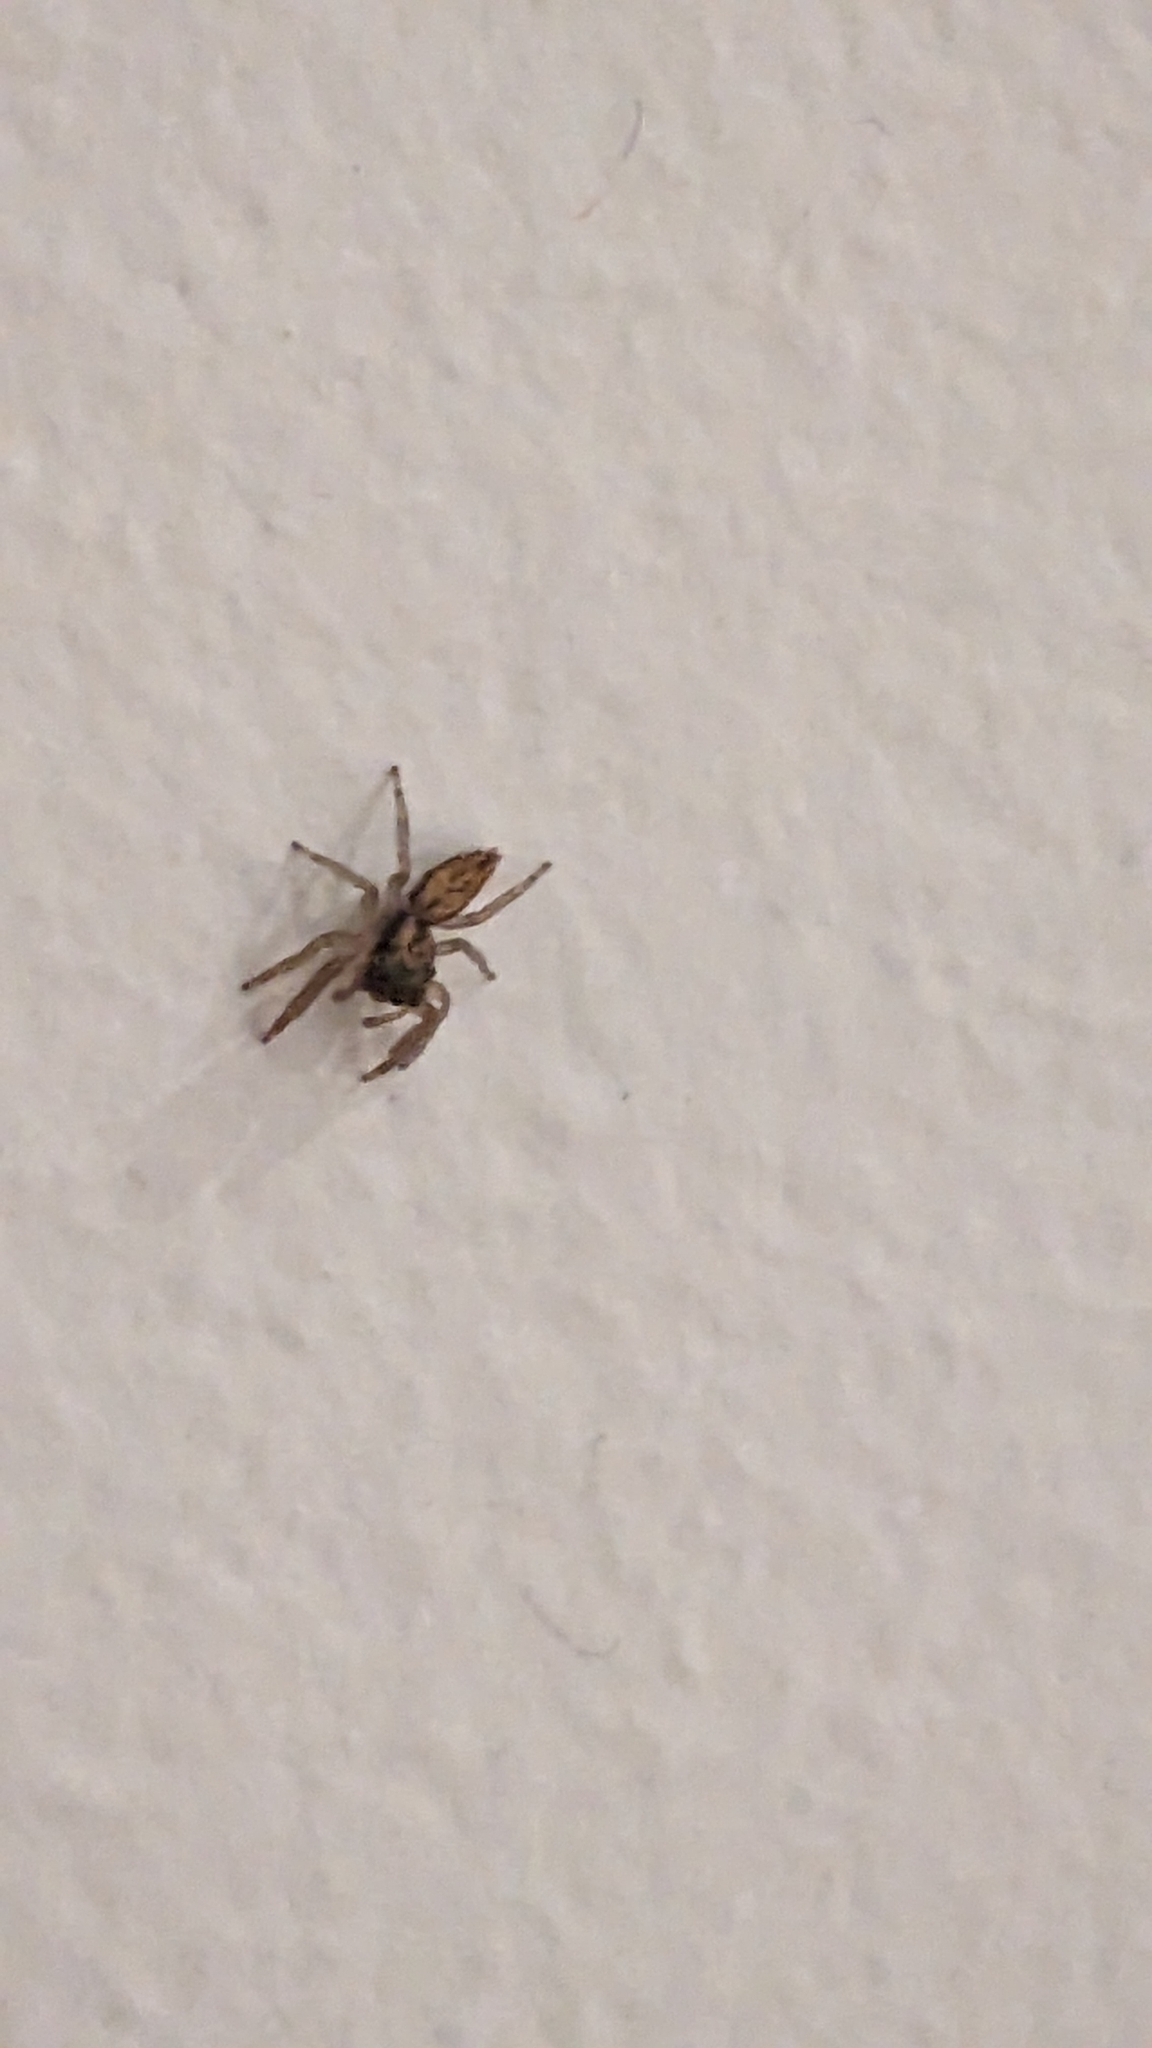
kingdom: Animalia
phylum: Arthropoda
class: Arachnida
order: Araneae
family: Salticidae
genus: Trite
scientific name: Trite auricoma
